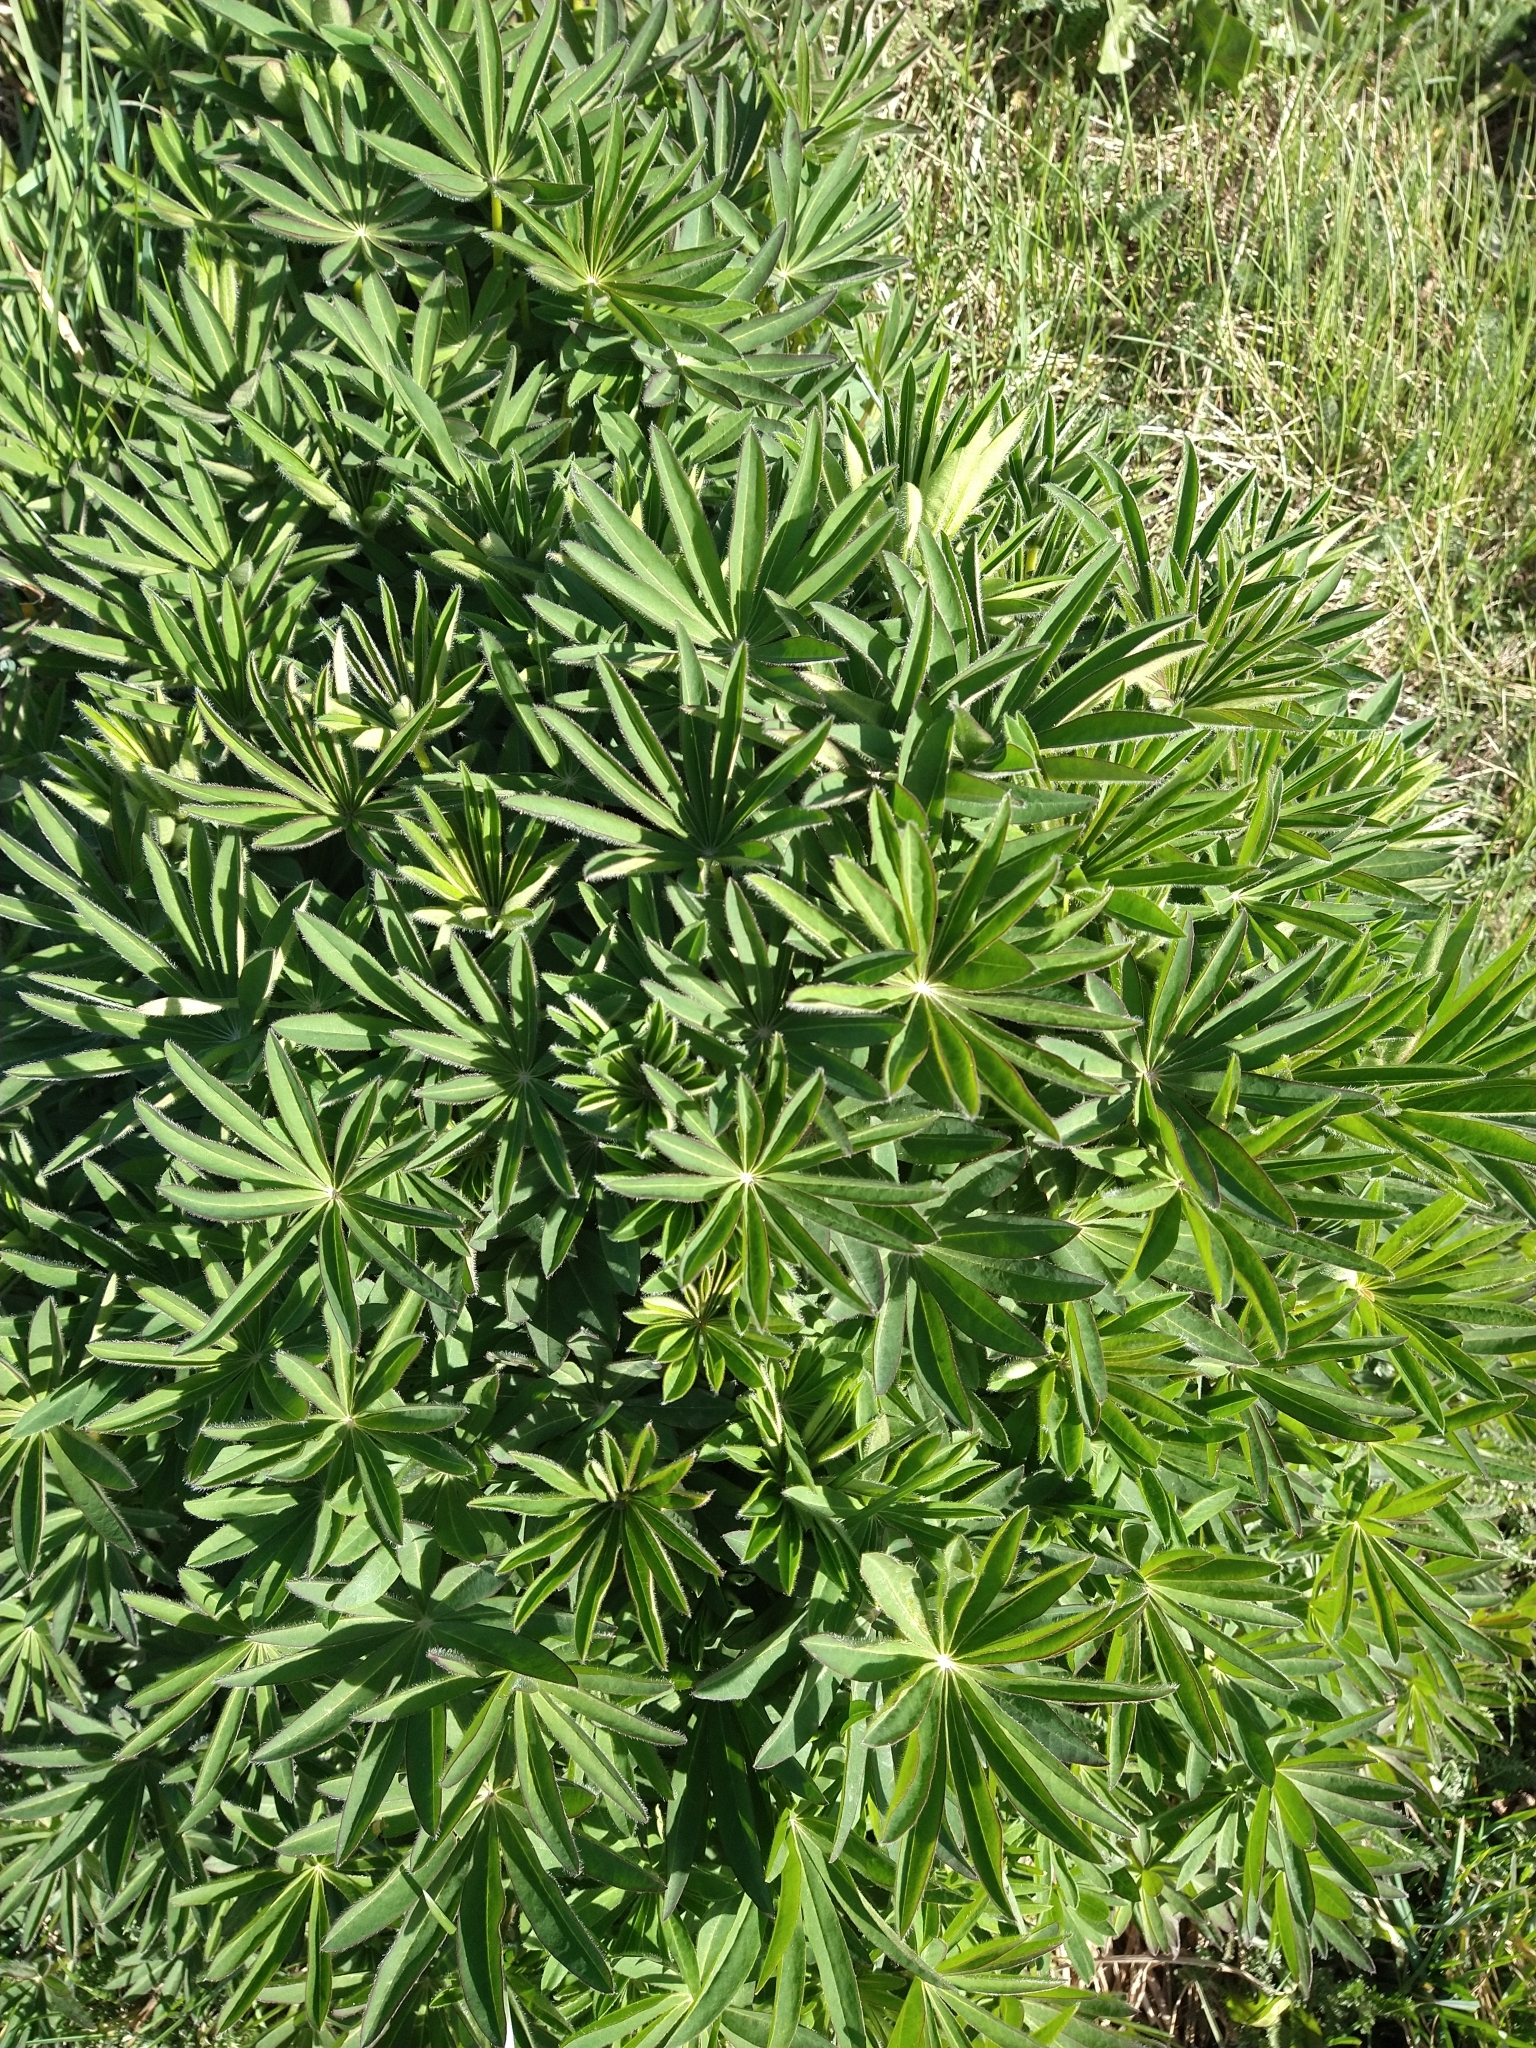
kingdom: Plantae
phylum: Tracheophyta
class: Magnoliopsida
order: Fabales
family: Fabaceae
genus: Lupinus
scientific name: Lupinus polyphyllus
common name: Garden lupin
